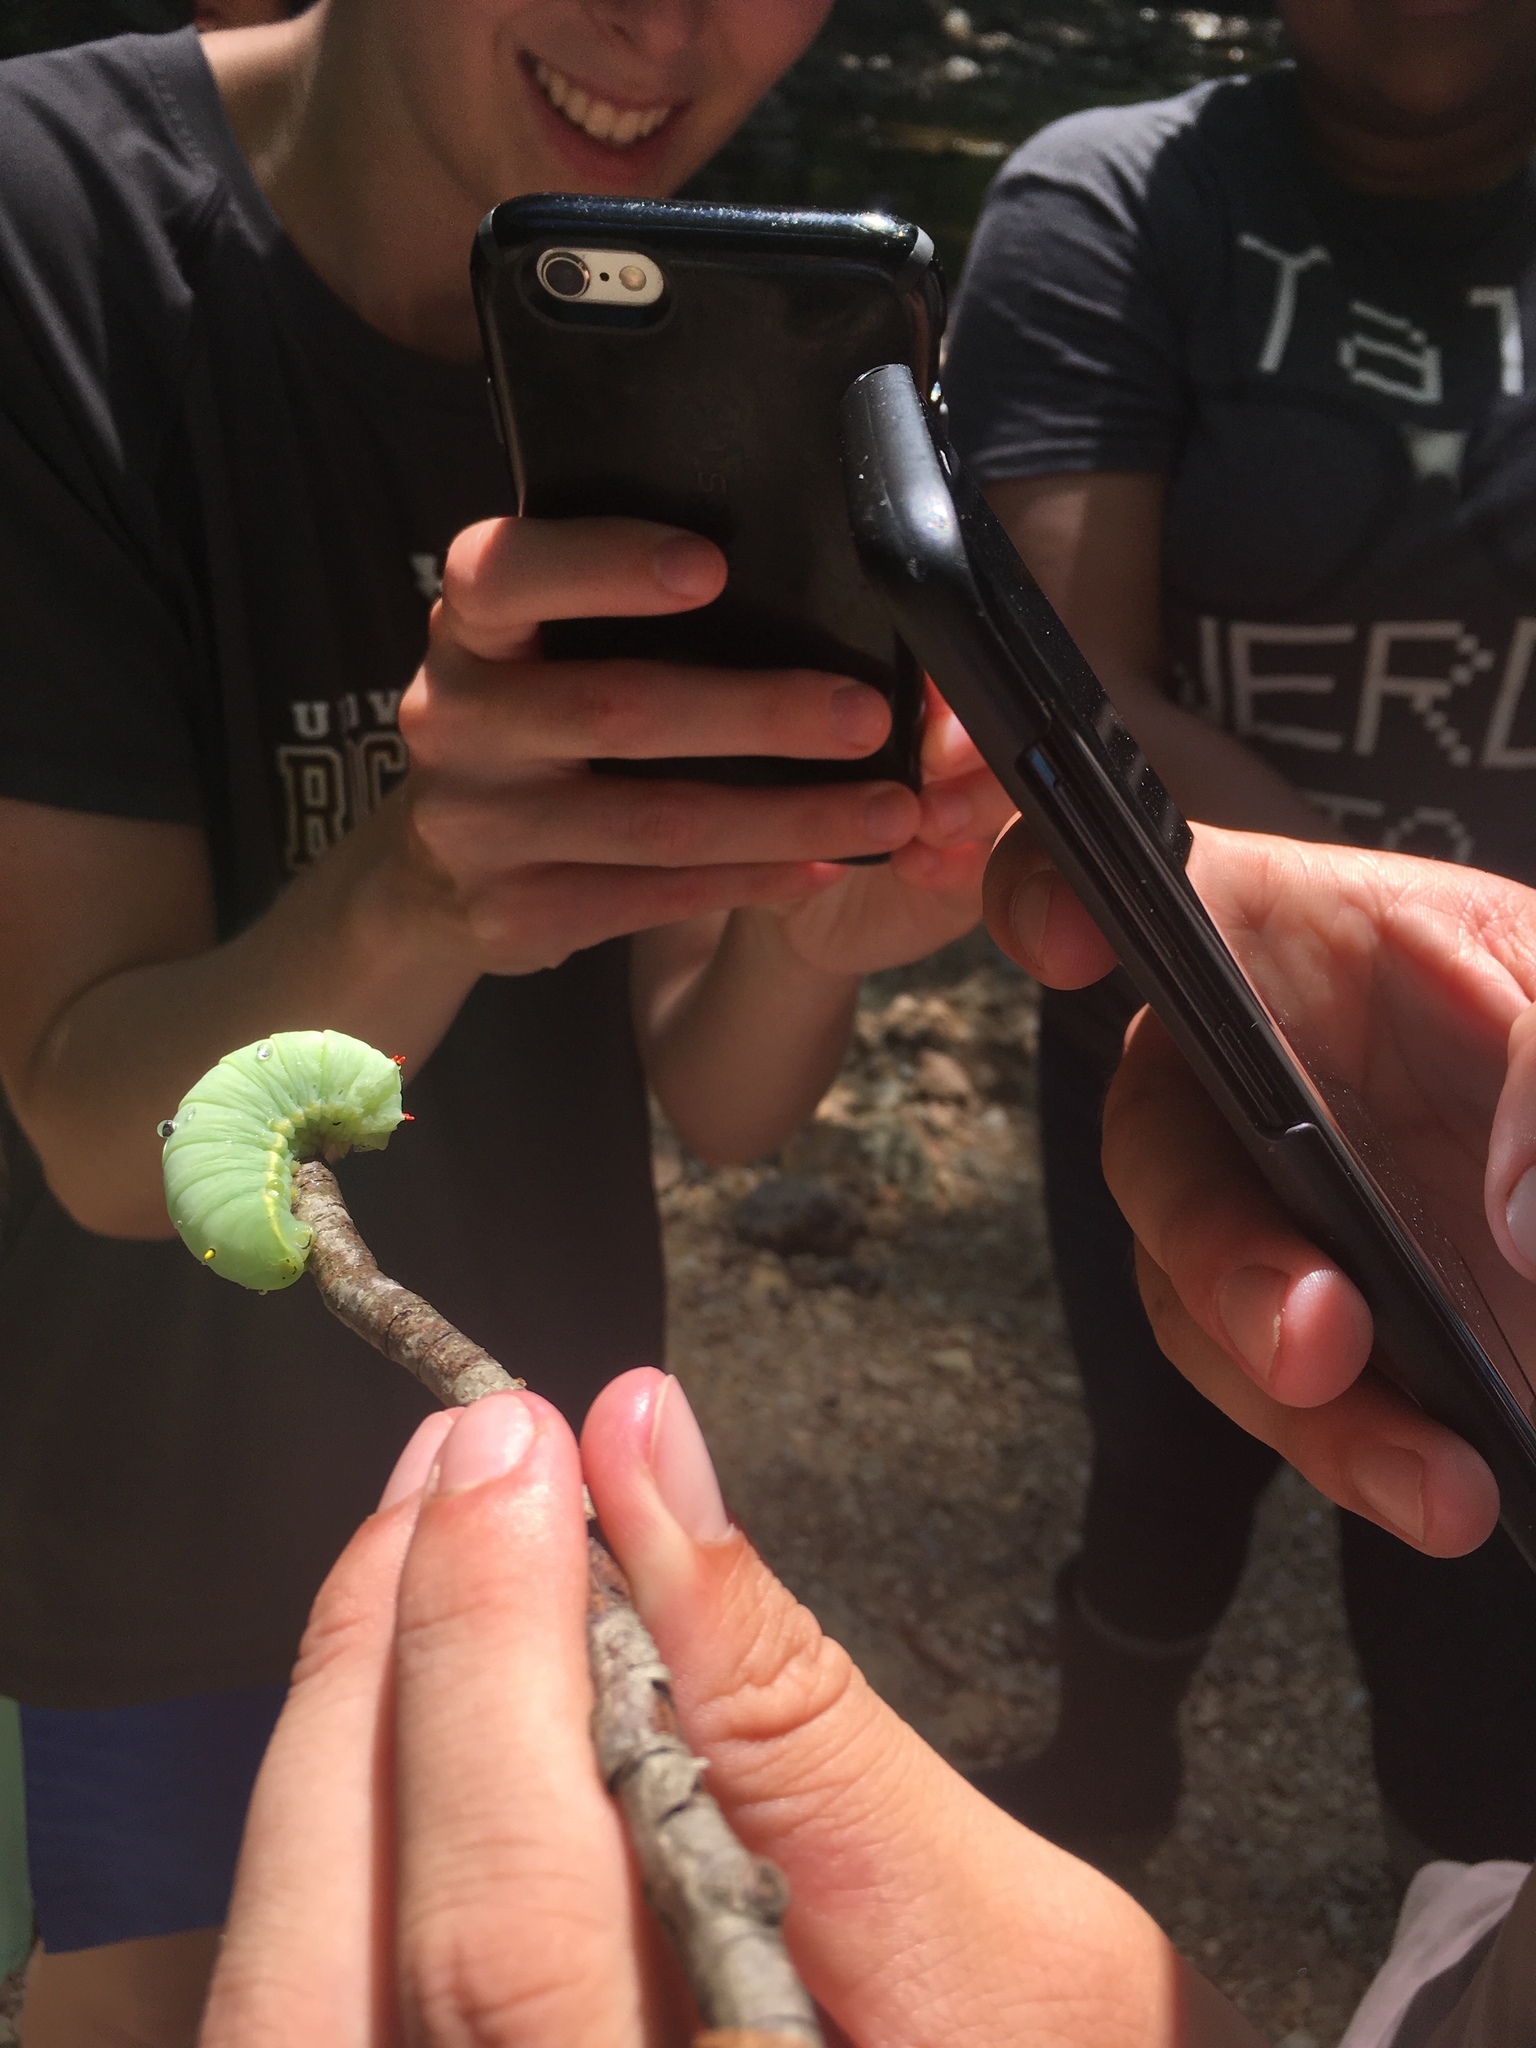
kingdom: Animalia
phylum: Arthropoda
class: Insecta
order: Lepidoptera
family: Saturniidae
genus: Callosamia
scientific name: Callosamia angulifera
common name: Tulip tree silkmoth
